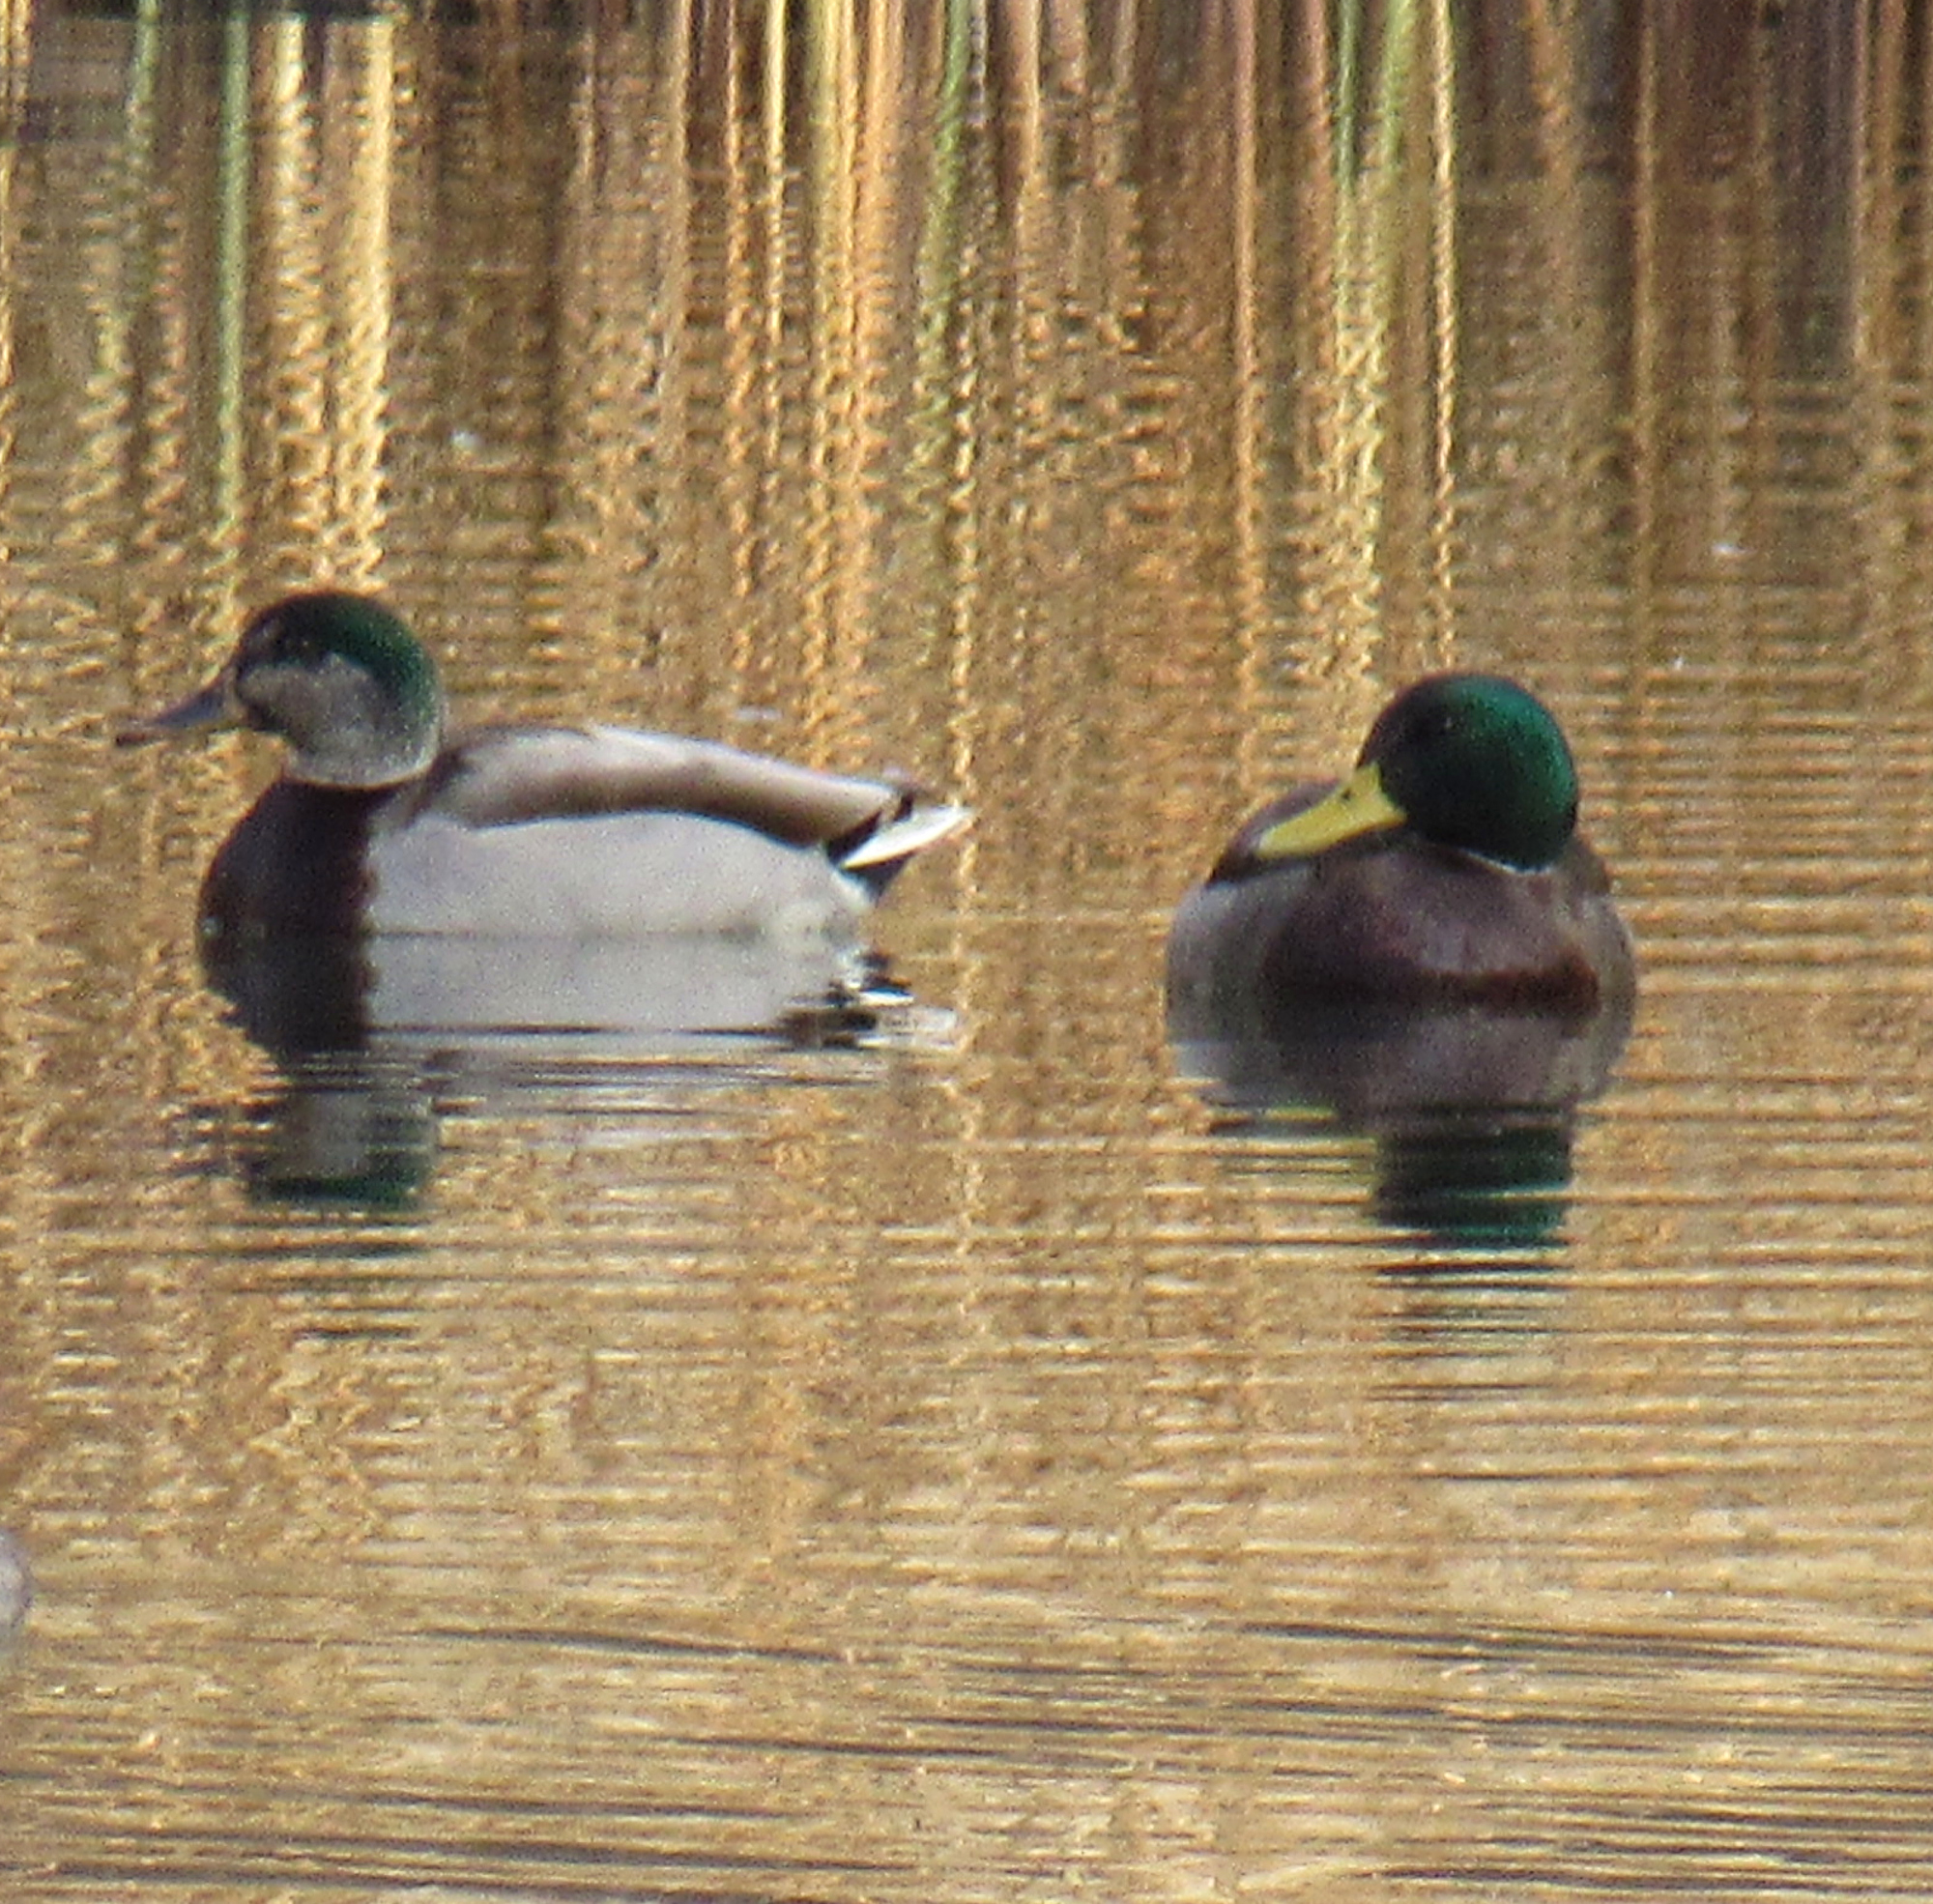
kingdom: Animalia
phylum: Chordata
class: Aves
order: Anseriformes
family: Anatidae
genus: Anas
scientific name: Anas platyrhynchos
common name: Mallard
